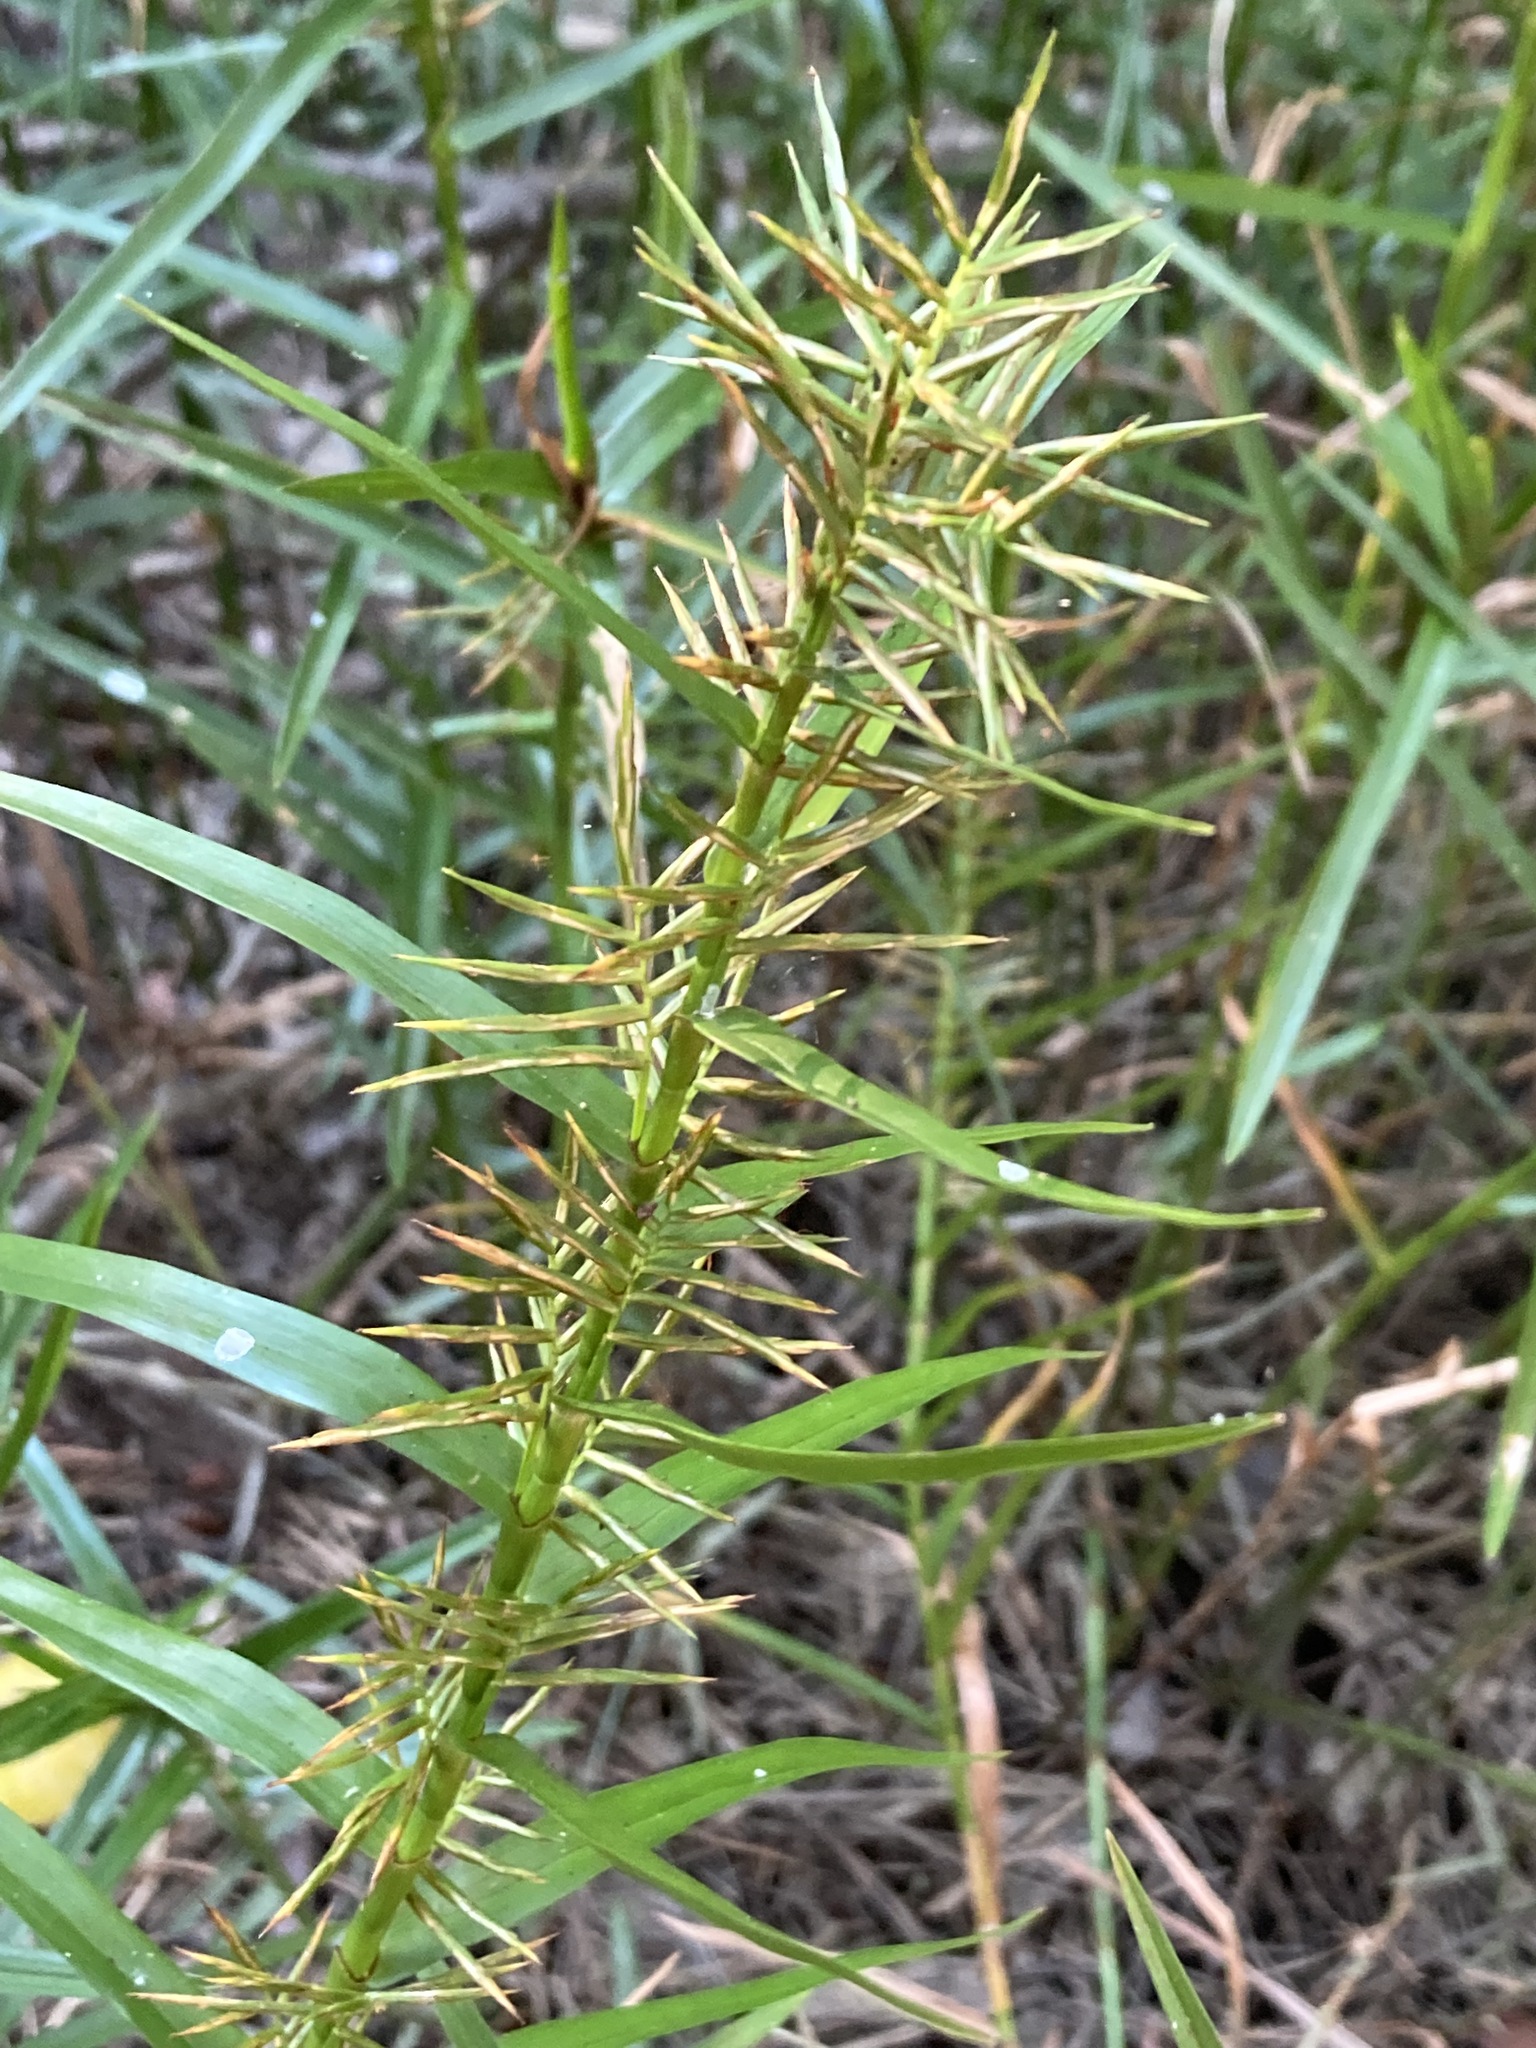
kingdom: Plantae
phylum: Tracheophyta
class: Liliopsida
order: Poales
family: Cyperaceae
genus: Dulichium
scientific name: Dulichium arundinaceum
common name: Three-way sedge
